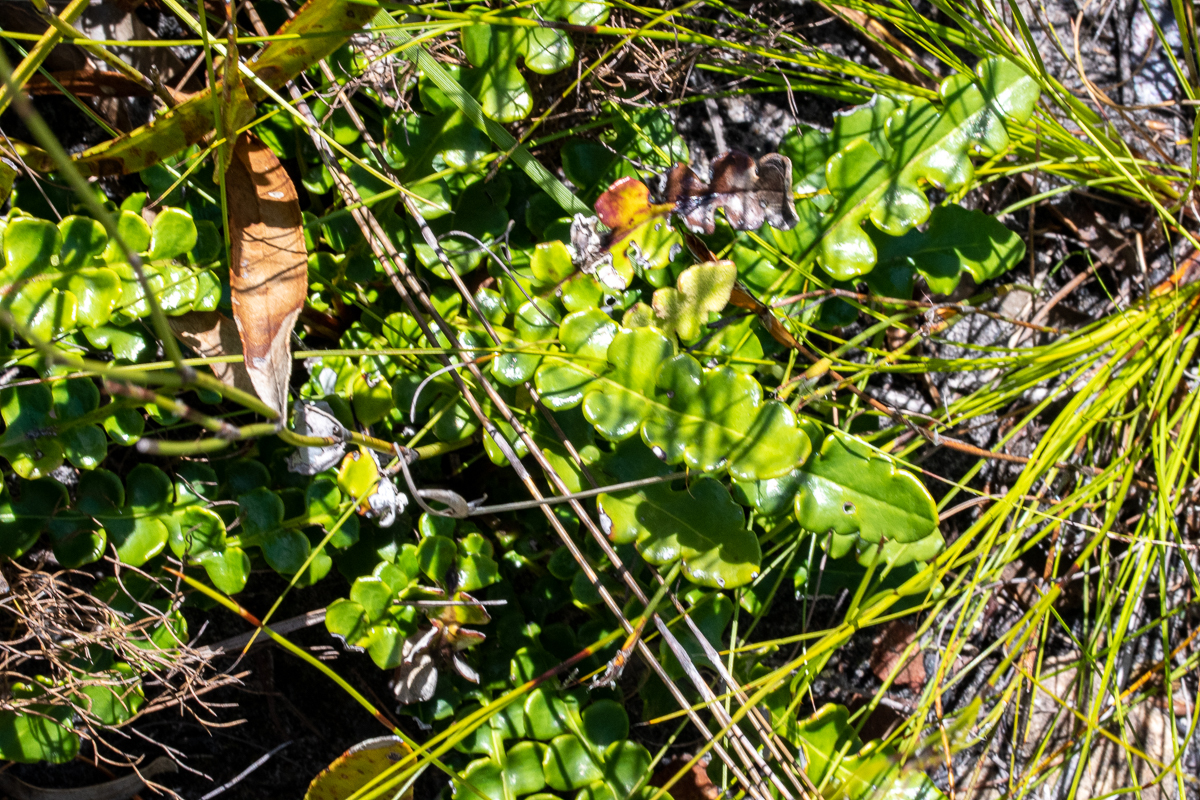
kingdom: Plantae
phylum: Tracheophyta
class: Magnoliopsida
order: Asterales
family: Asteraceae
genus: Gerbera
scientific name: Gerbera linnaei
